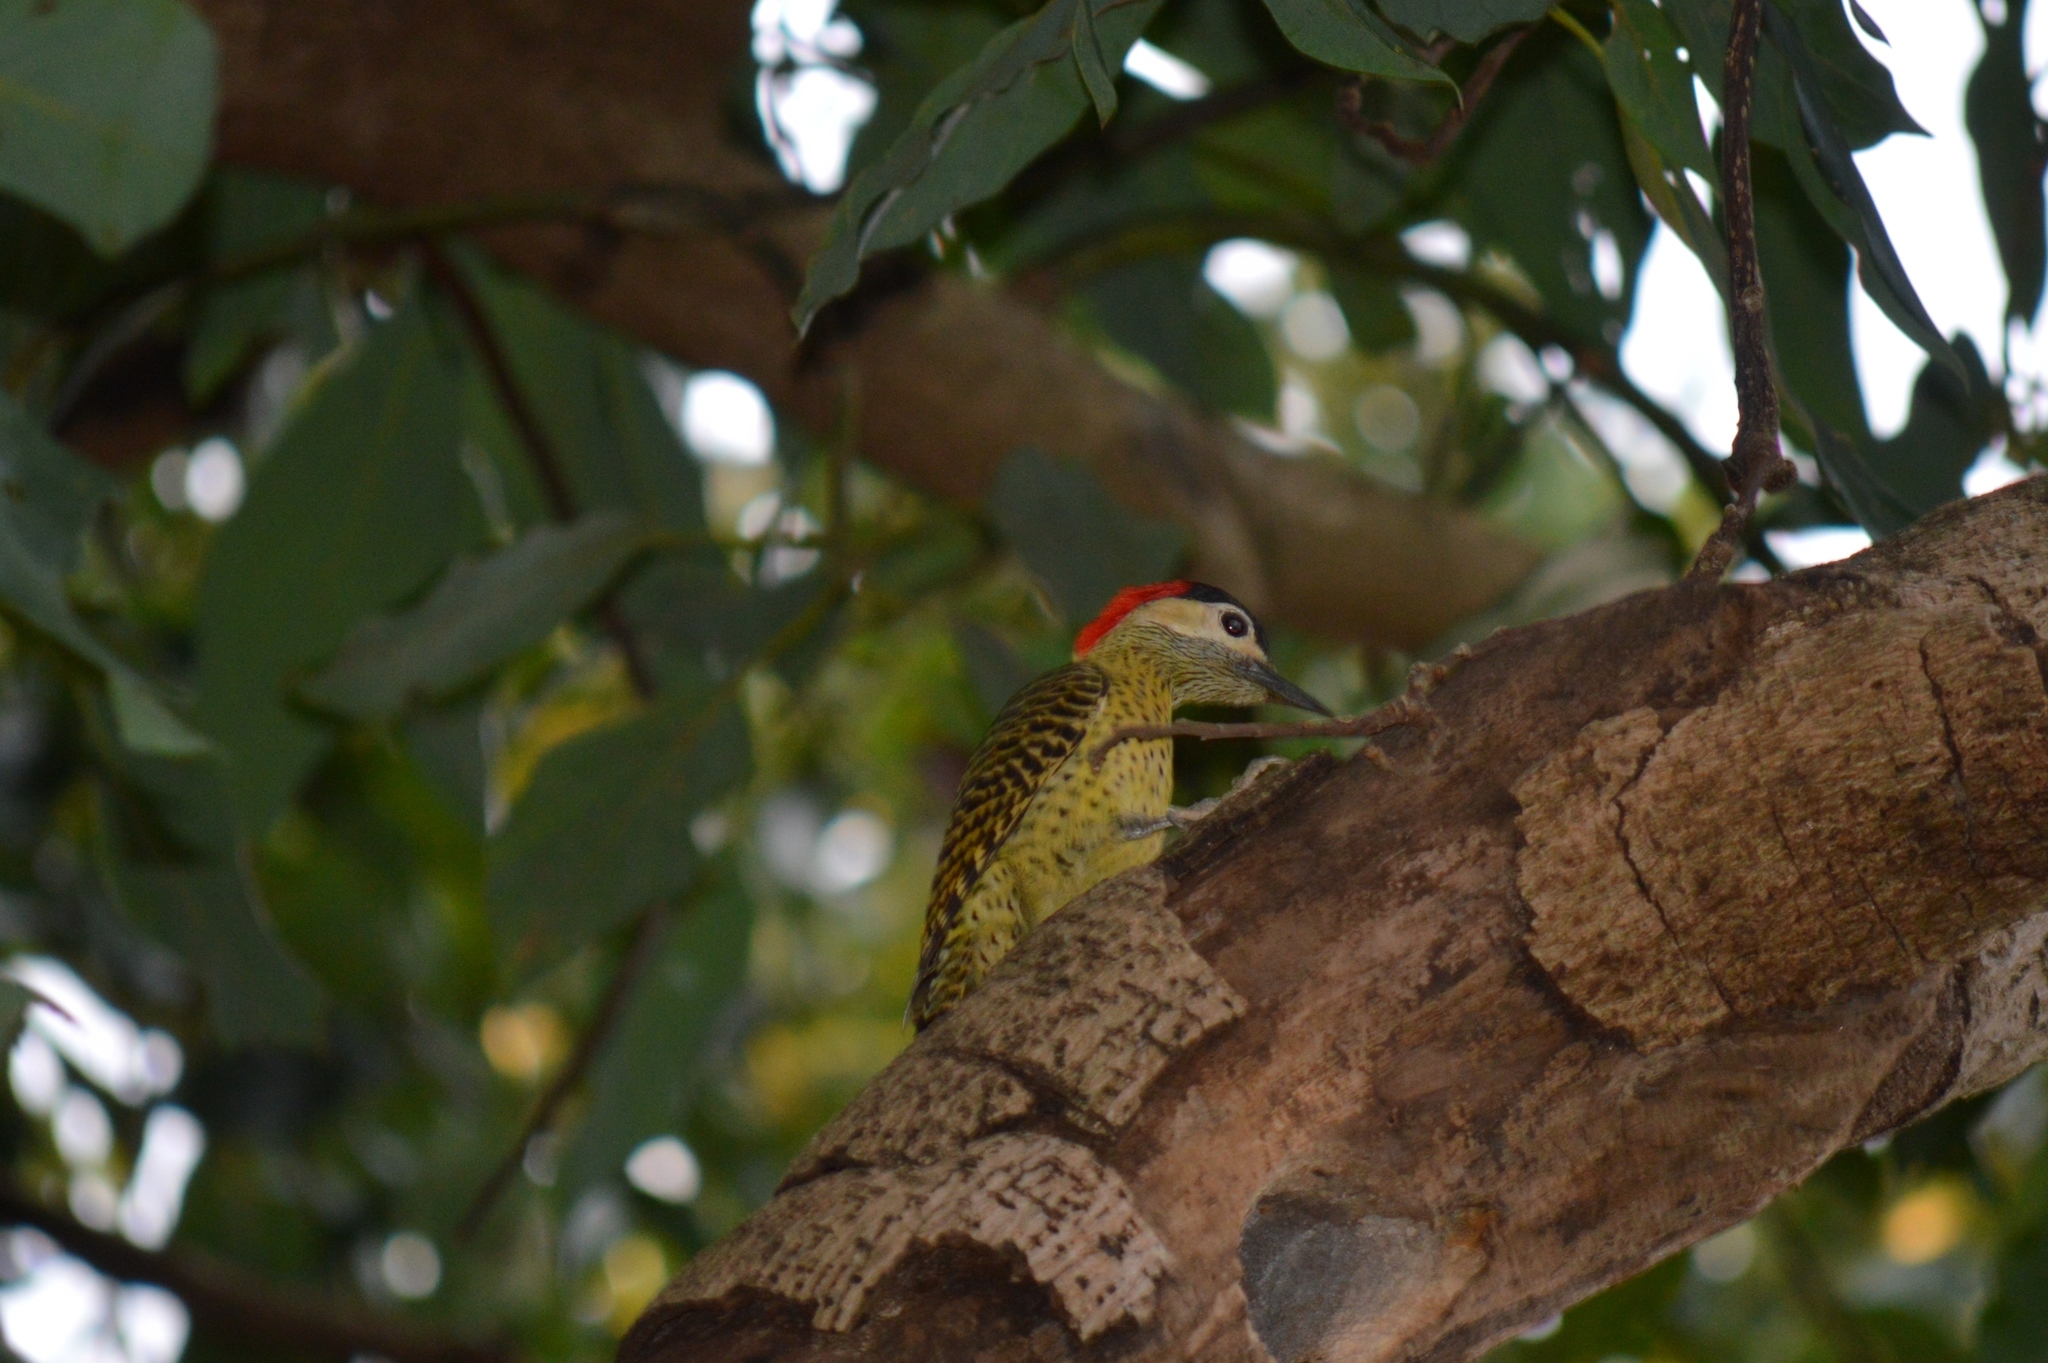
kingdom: Animalia
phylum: Chordata
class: Aves
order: Piciformes
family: Picidae
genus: Colaptes
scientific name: Colaptes melanochloros
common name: Green-barred woodpecker
